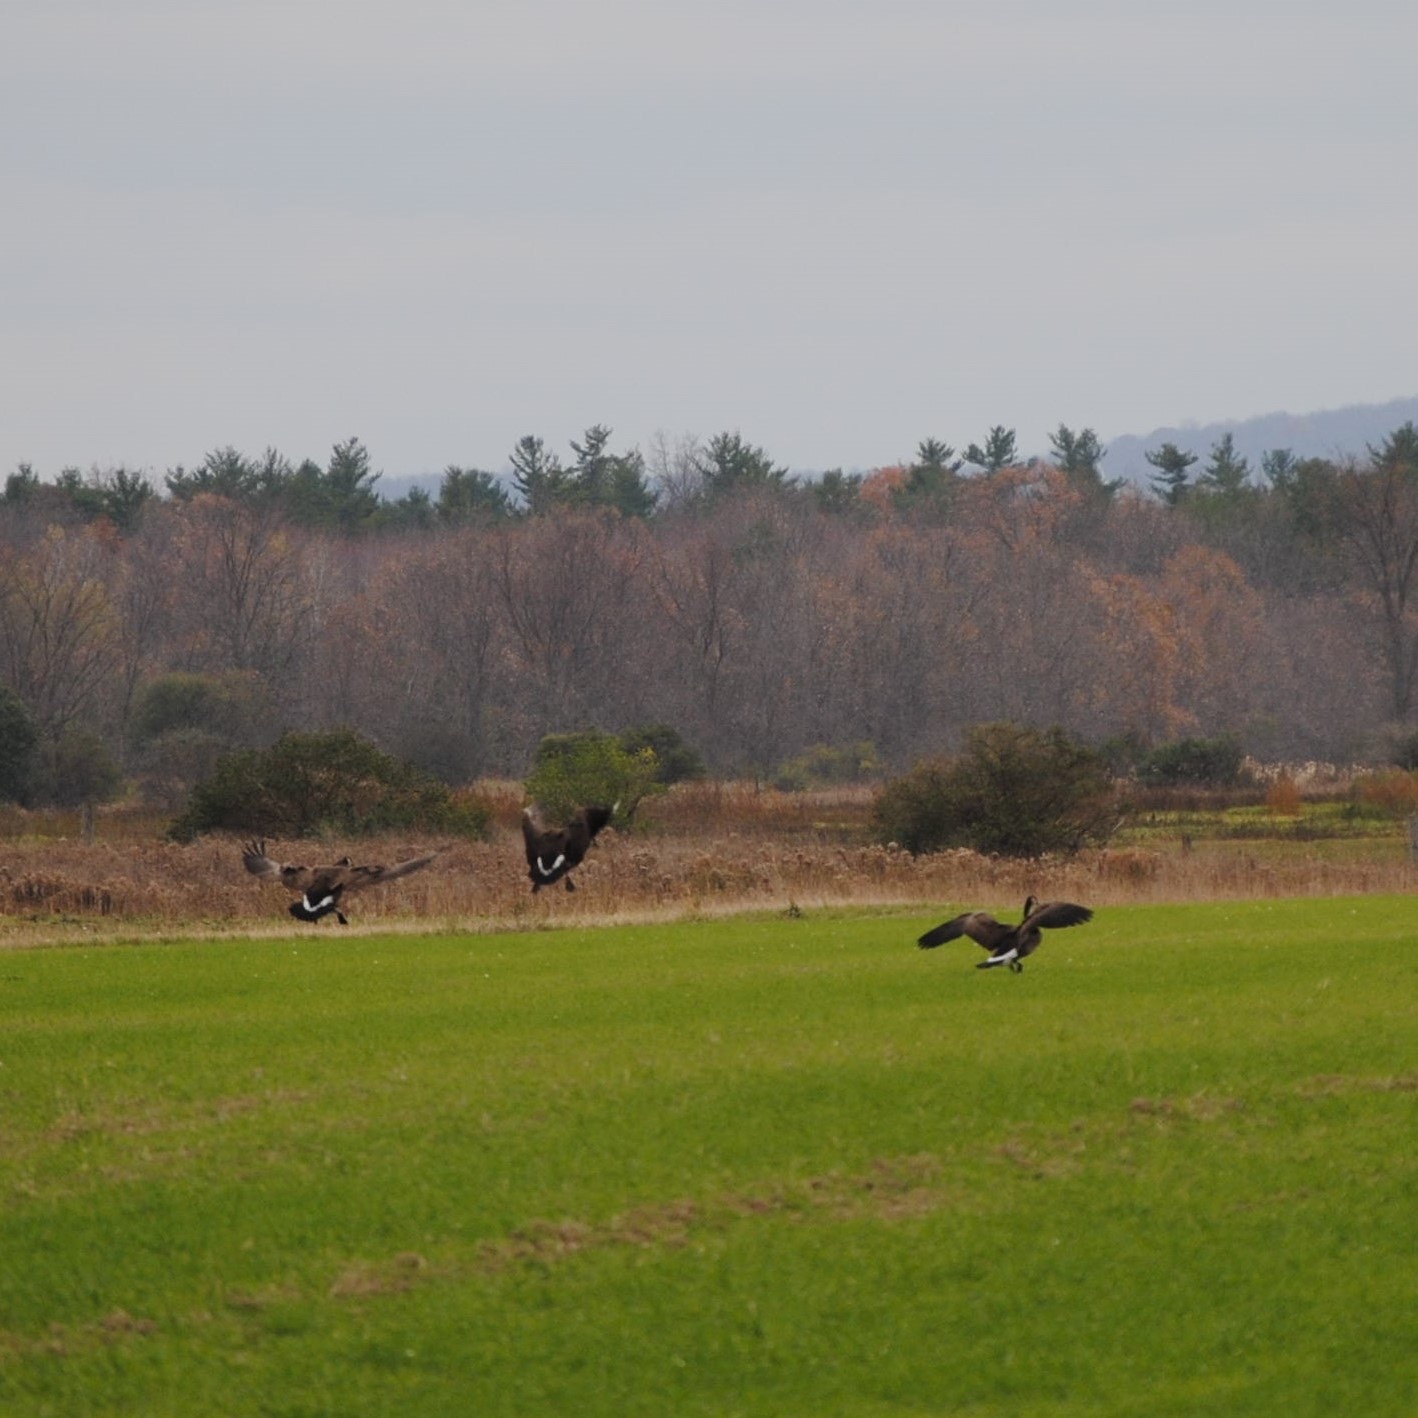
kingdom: Animalia
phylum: Chordata
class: Aves
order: Anseriformes
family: Anatidae
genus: Branta
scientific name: Branta canadensis
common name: Canada goose
